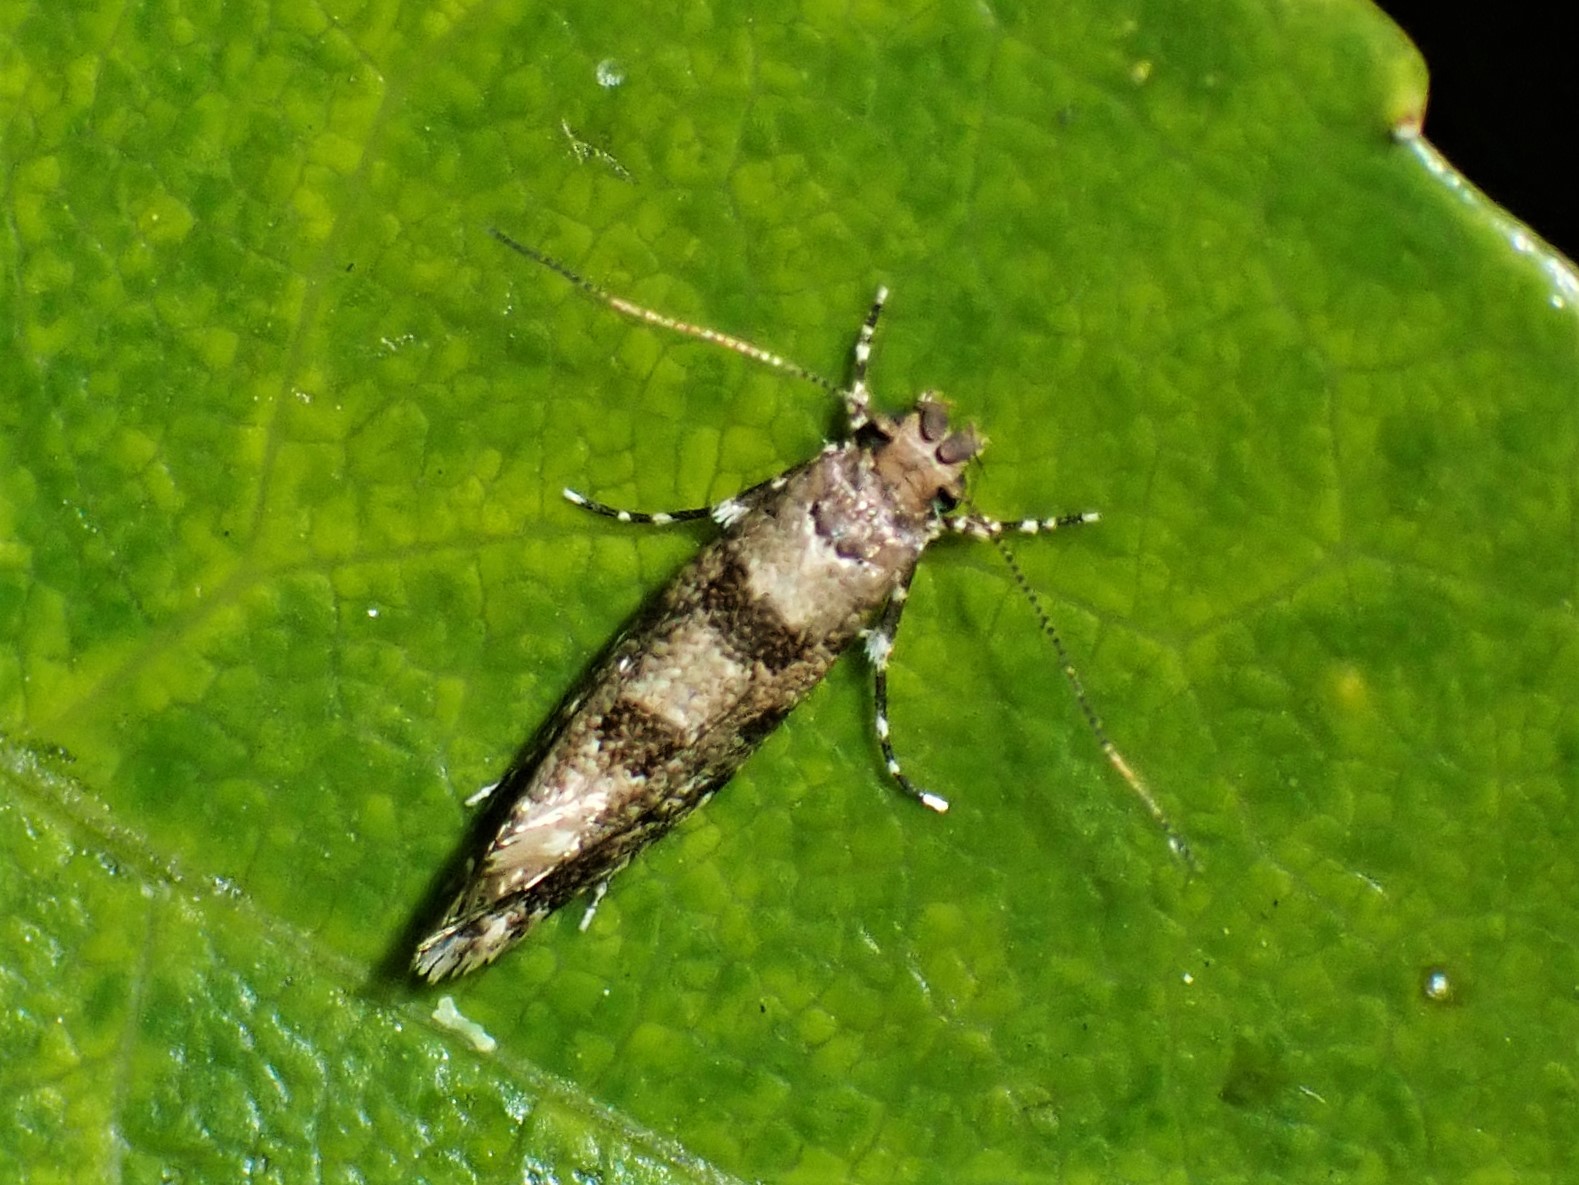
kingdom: Animalia
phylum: Arthropoda
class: Insecta
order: Lepidoptera
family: Tineidae
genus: Parochmastis
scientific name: Parochmastis hilderi
